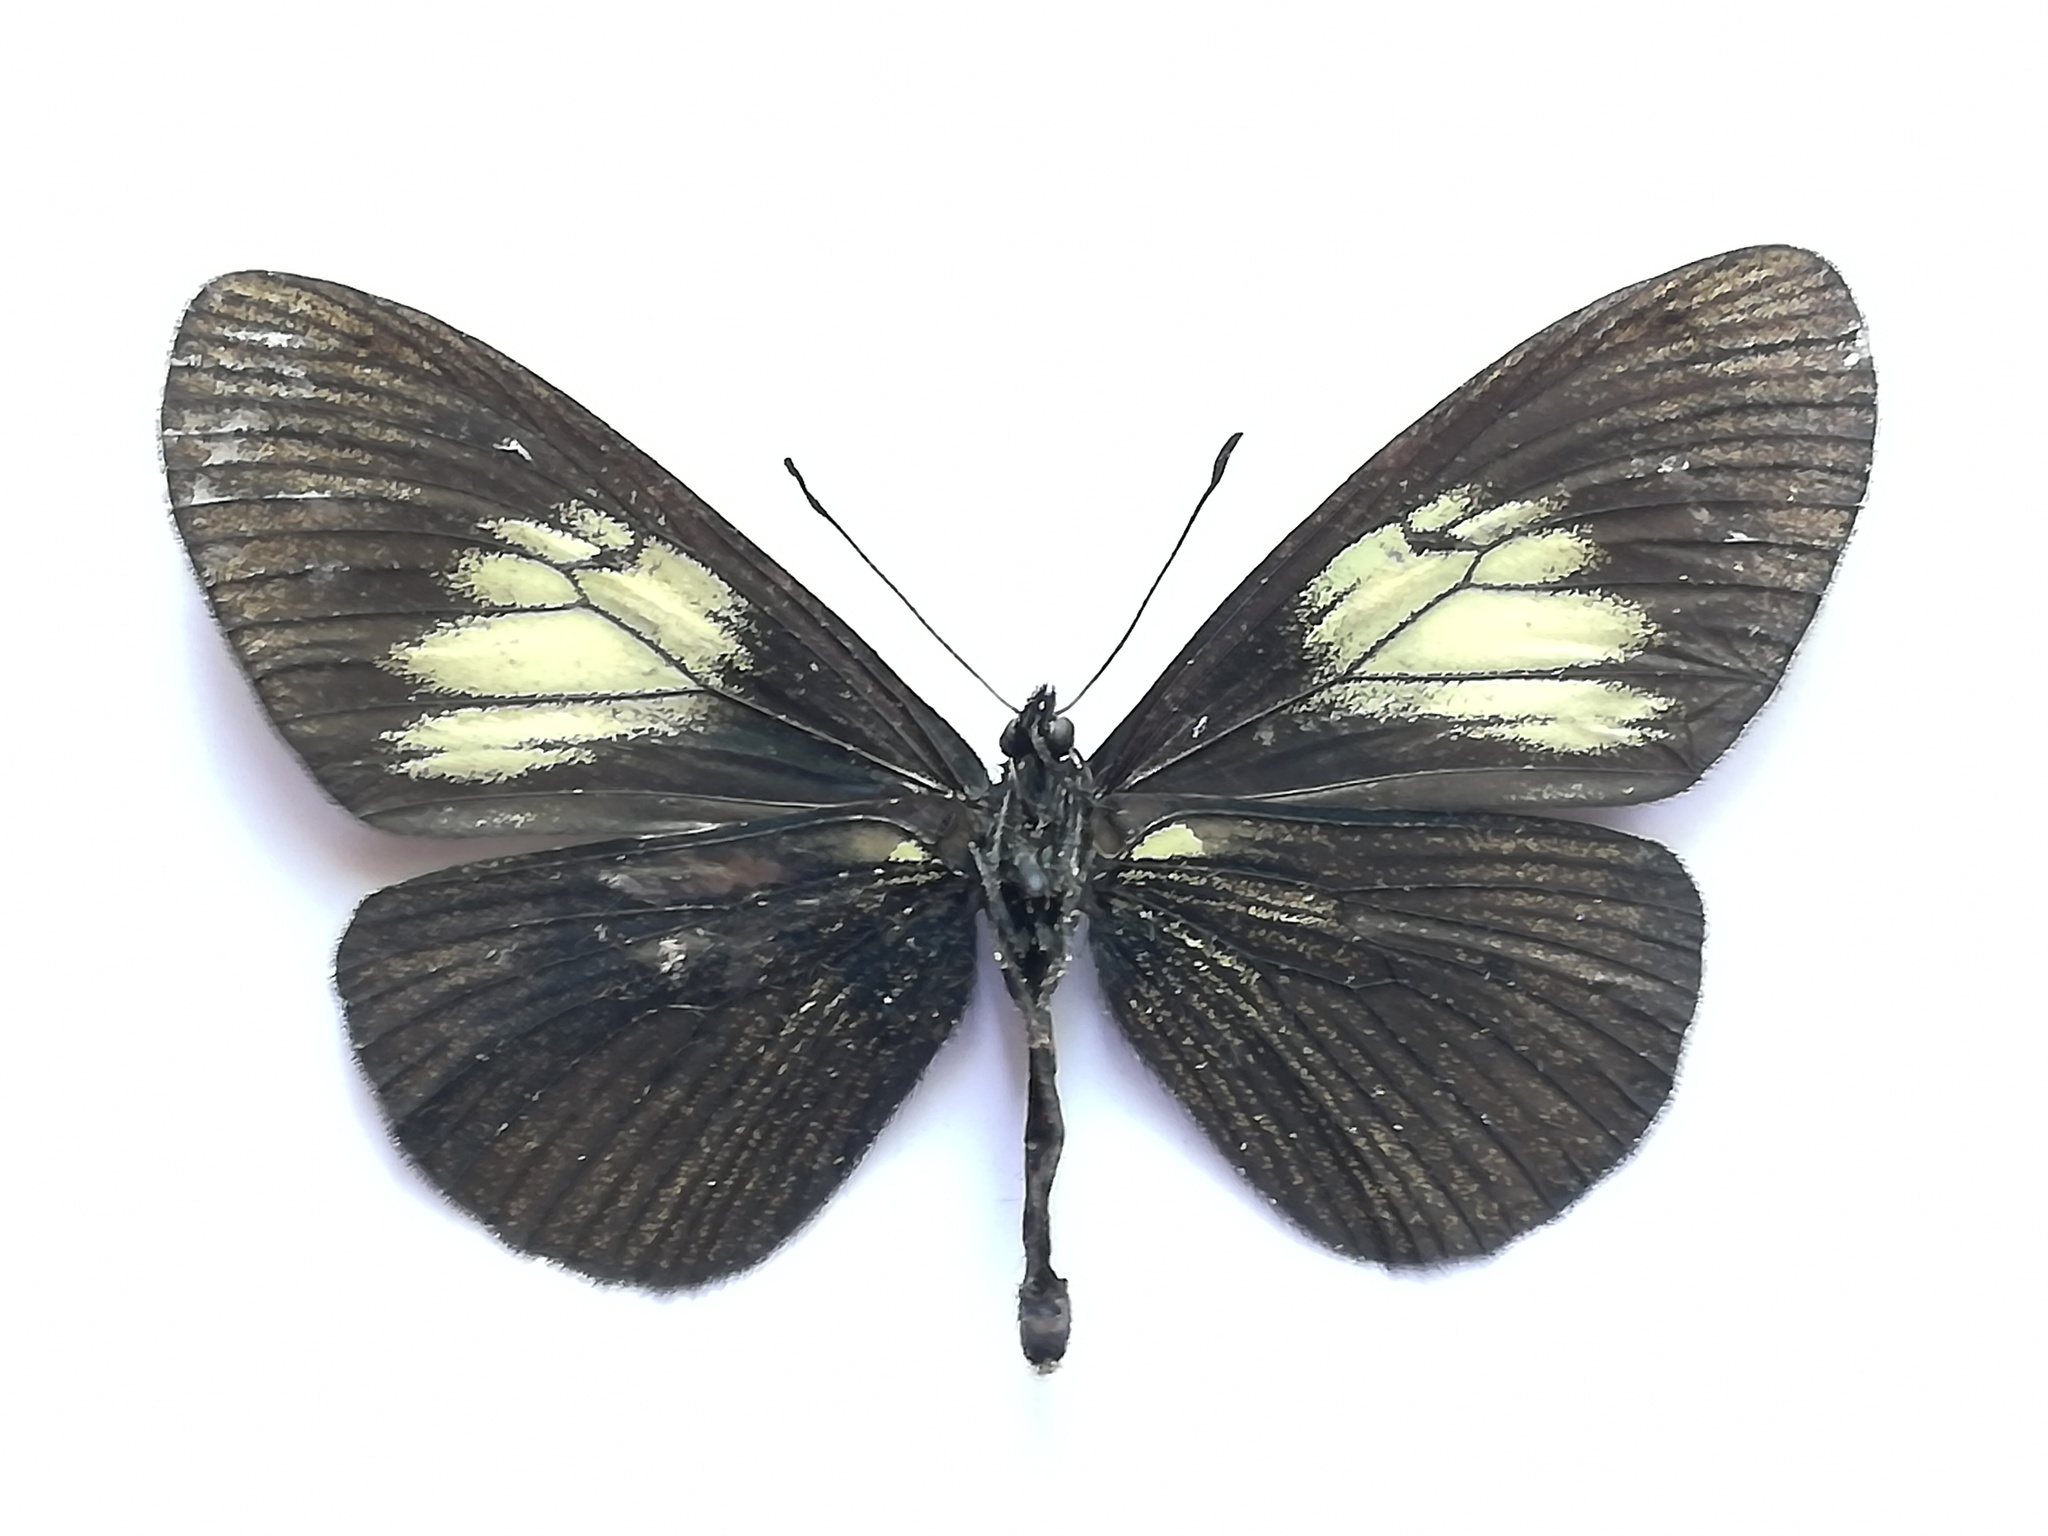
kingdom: Animalia
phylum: Arthropoda
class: Insecta
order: Lepidoptera
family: Nymphalidae
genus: Acraea
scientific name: Acraea Altinote ozomene
